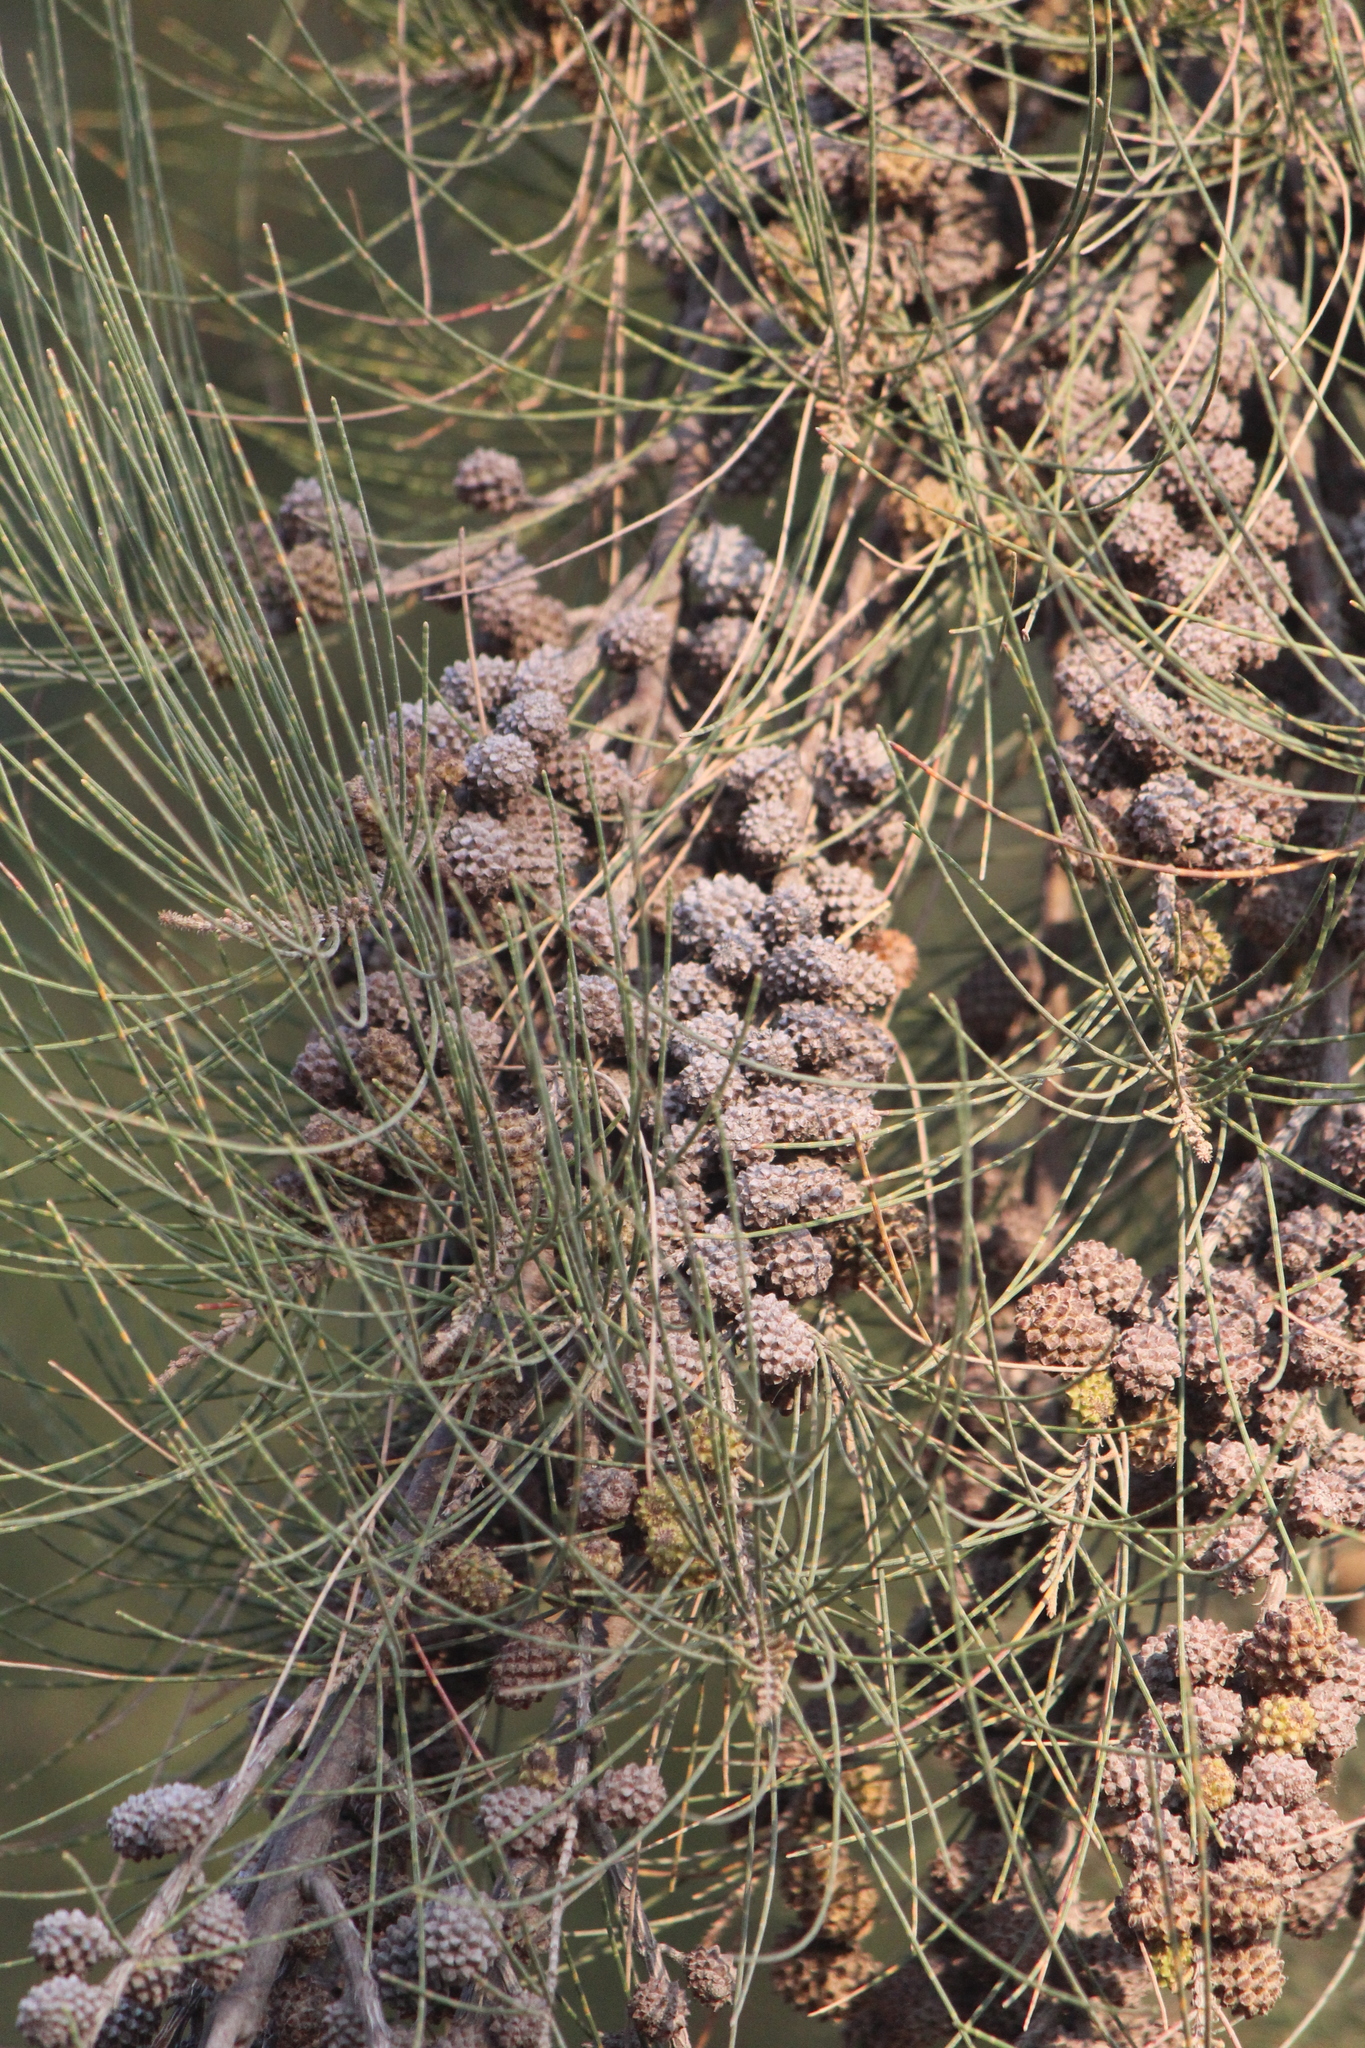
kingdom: Plantae
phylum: Tracheophyta
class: Magnoliopsida
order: Caryophyllales
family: Tamaricaceae
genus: Tamarix
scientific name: Tamarix ramosissima
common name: Pink tamarisk
